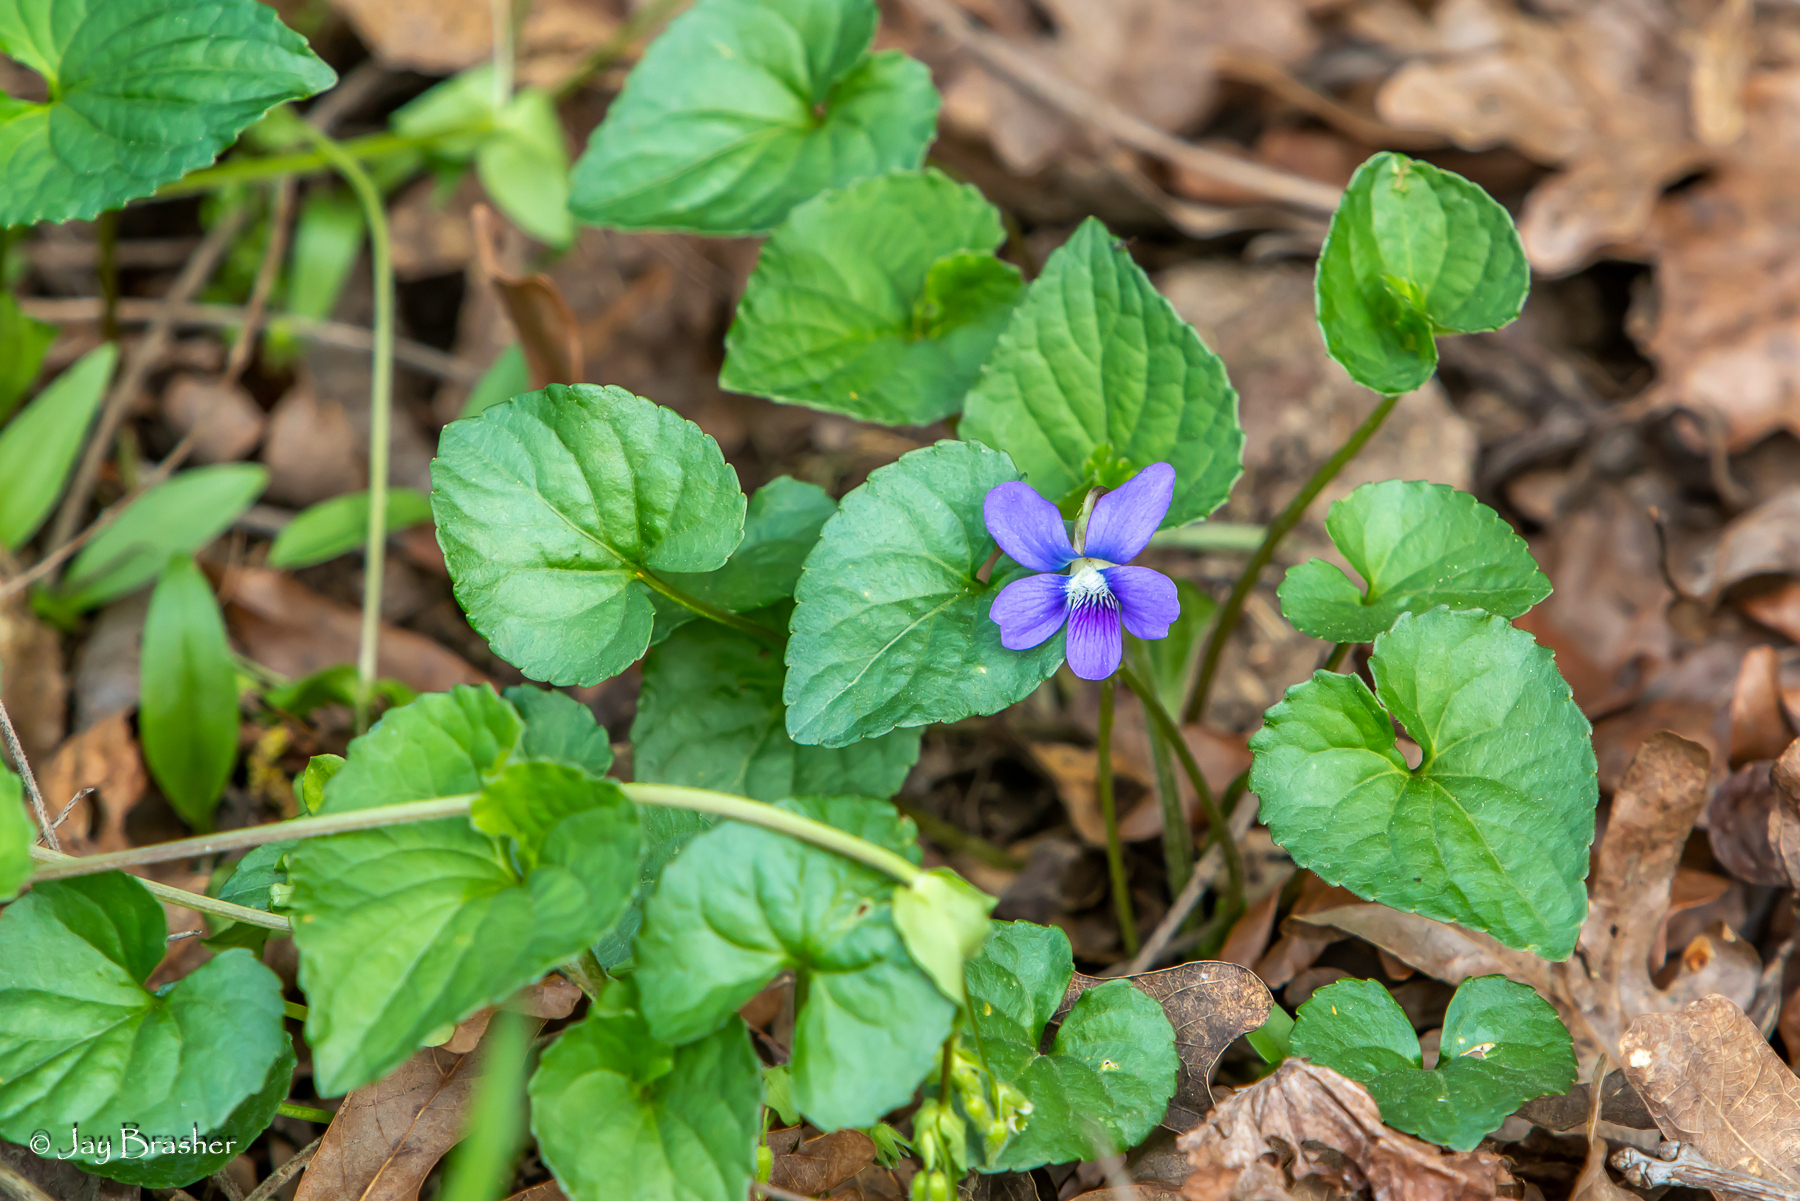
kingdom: Plantae
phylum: Tracheophyta
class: Magnoliopsida
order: Malpighiales
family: Violaceae
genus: Viola
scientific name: Viola sororia
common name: Dooryard violet
